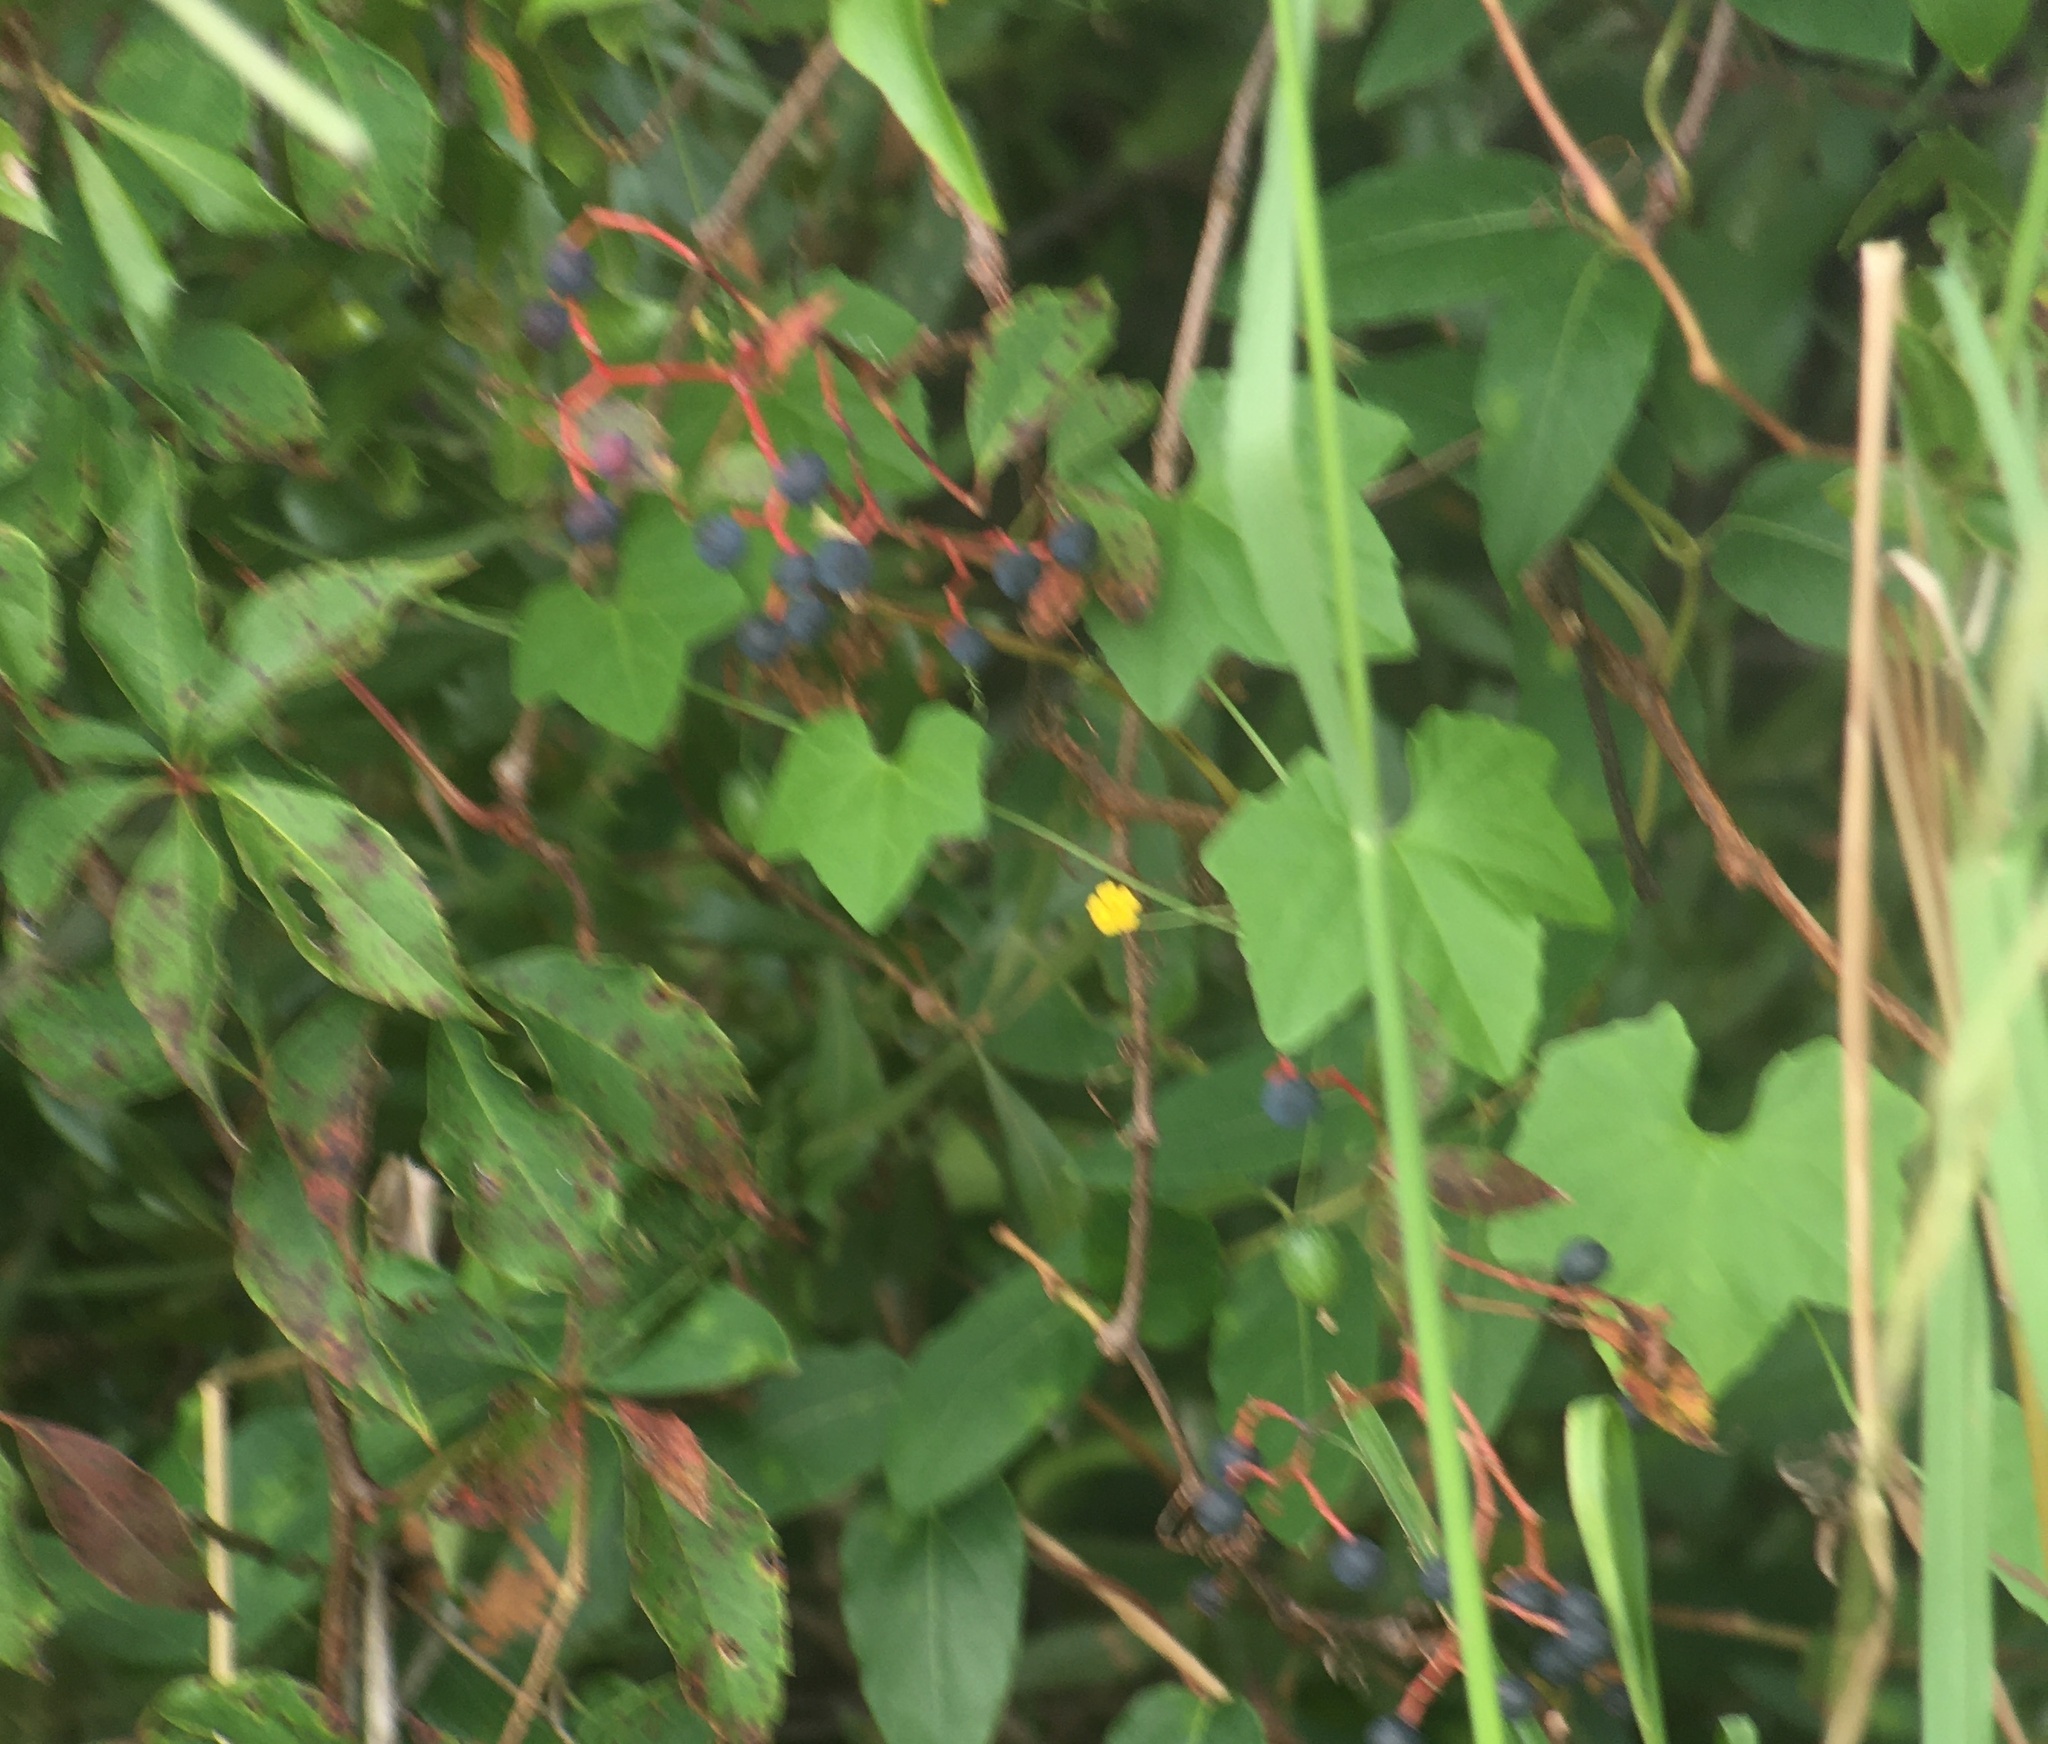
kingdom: Plantae
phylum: Tracheophyta
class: Magnoliopsida
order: Cucurbitales
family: Cucurbitaceae
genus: Melothria
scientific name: Melothria pendula
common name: Creeping-cucumber
